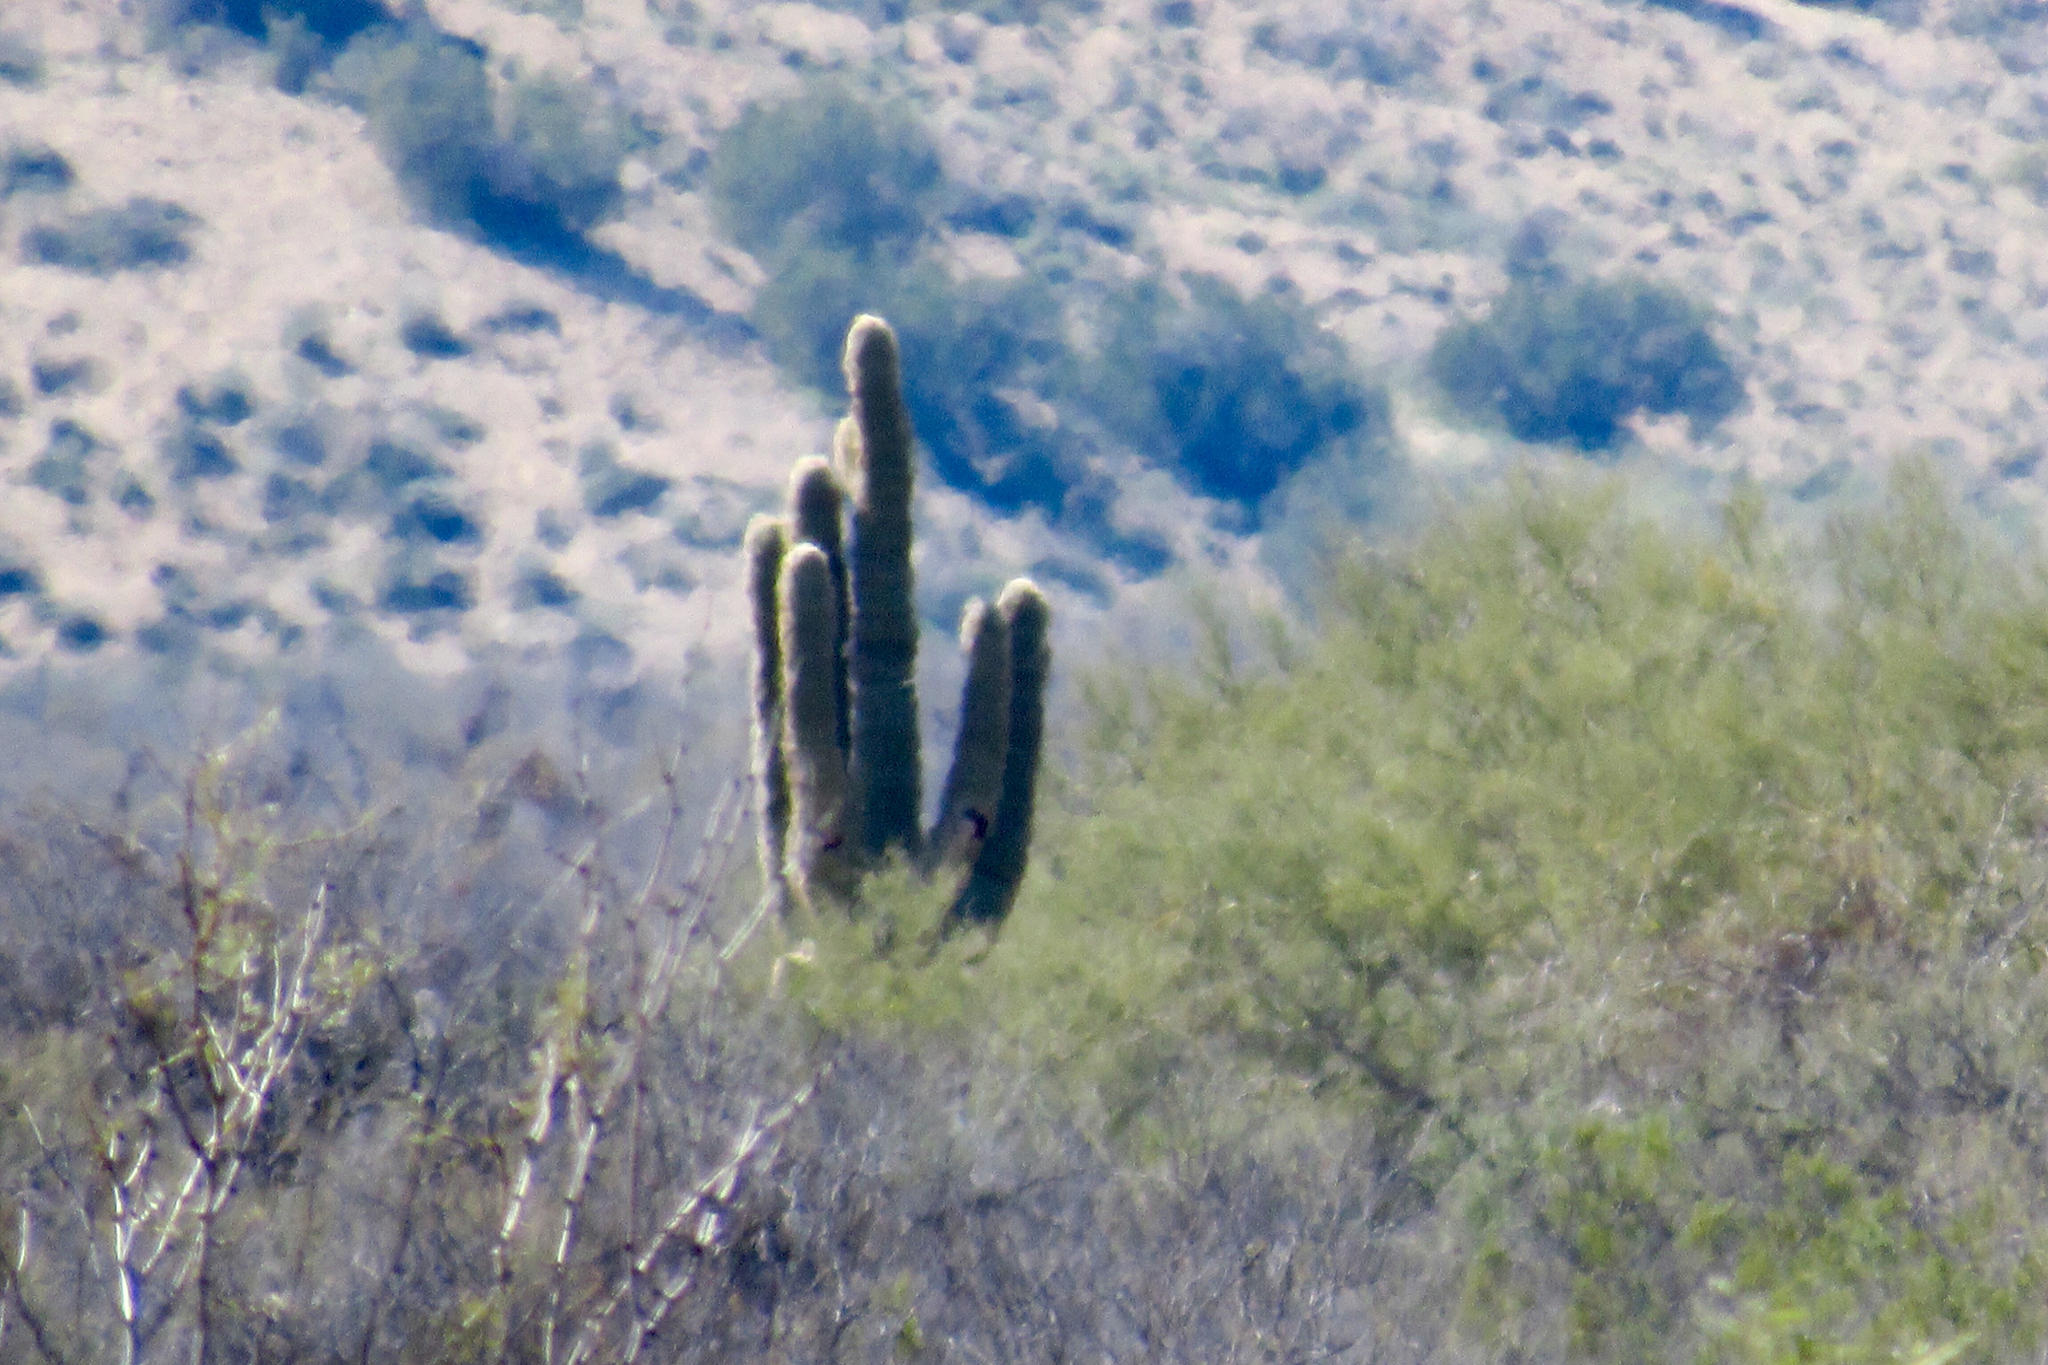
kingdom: Plantae
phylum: Tracheophyta
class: Magnoliopsida
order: Caryophyllales
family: Cactaceae
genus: Carnegiea
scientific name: Carnegiea gigantea
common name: Saguaro
